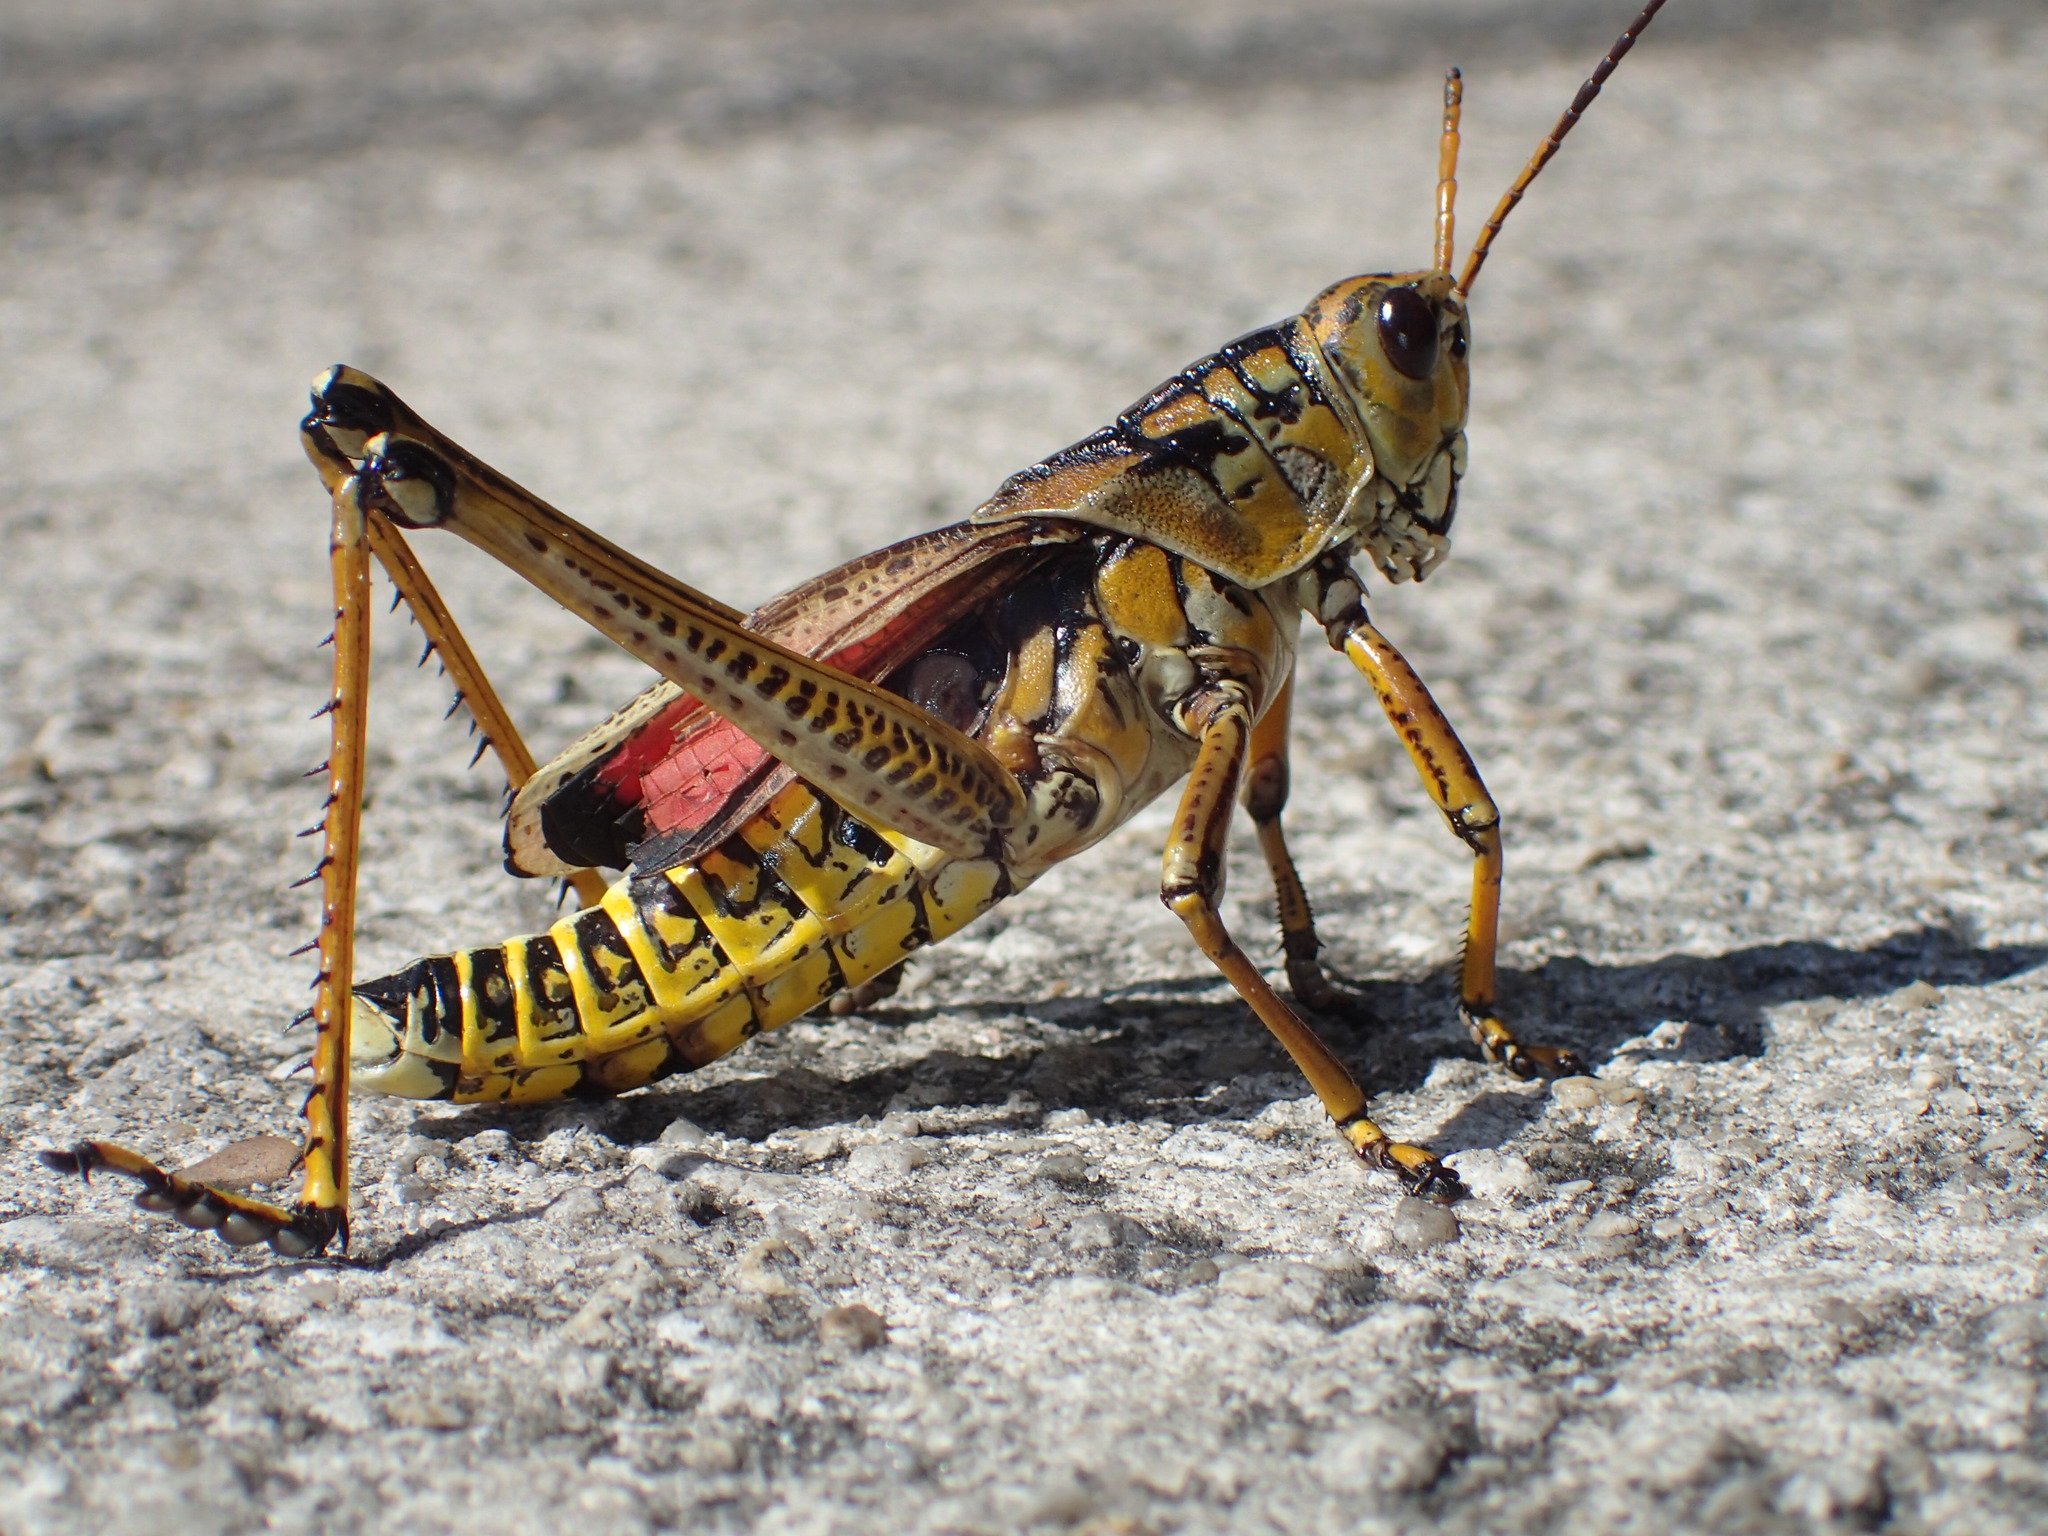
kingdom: Animalia
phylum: Arthropoda
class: Insecta
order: Orthoptera
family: Romaleidae
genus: Romalea
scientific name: Romalea microptera
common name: Eastern lubber grasshopper
